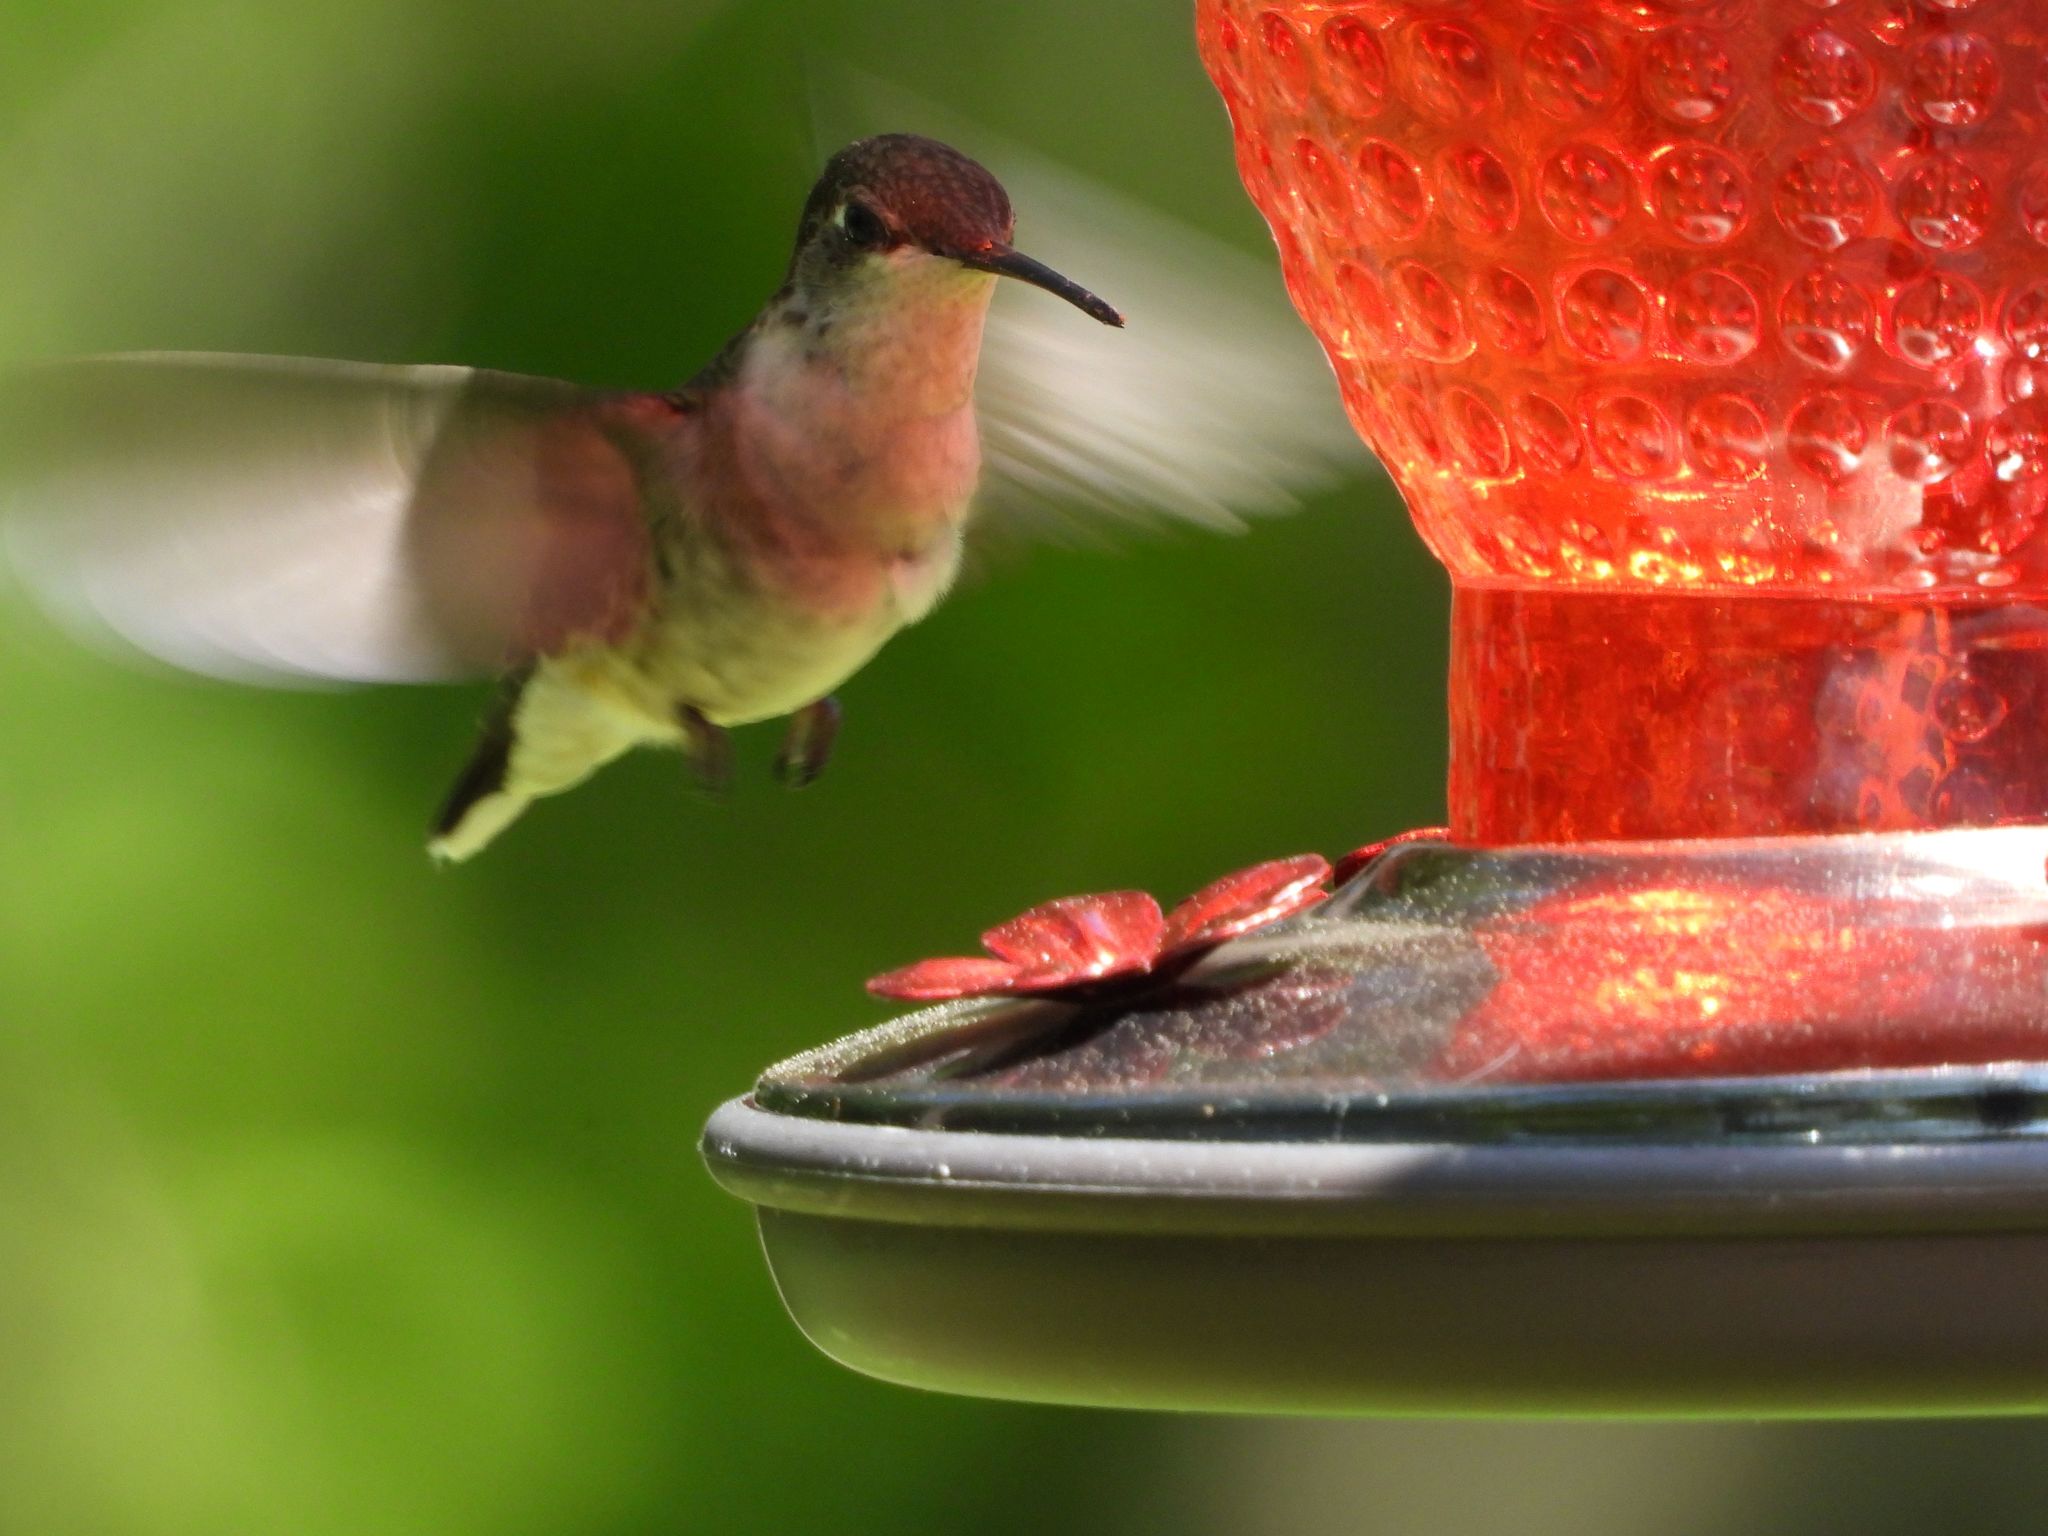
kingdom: Animalia
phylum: Chordata
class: Aves
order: Apodiformes
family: Trochilidae
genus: Archilochus
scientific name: Archilochus colubris
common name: Ruby-throated hummingbird
